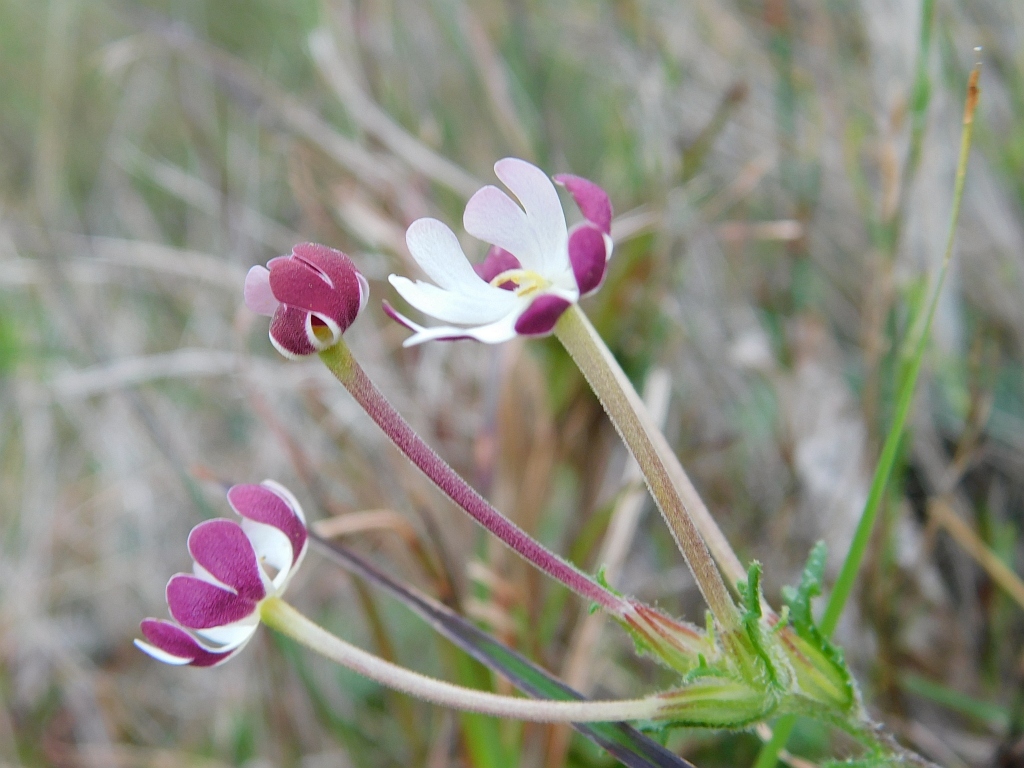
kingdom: Plantae
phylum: Tracheophyta
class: Magnoliopsida
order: Lamiales
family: Scrophulariaceae
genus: Zaluzianskya
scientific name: Zaluzianskya capensis
